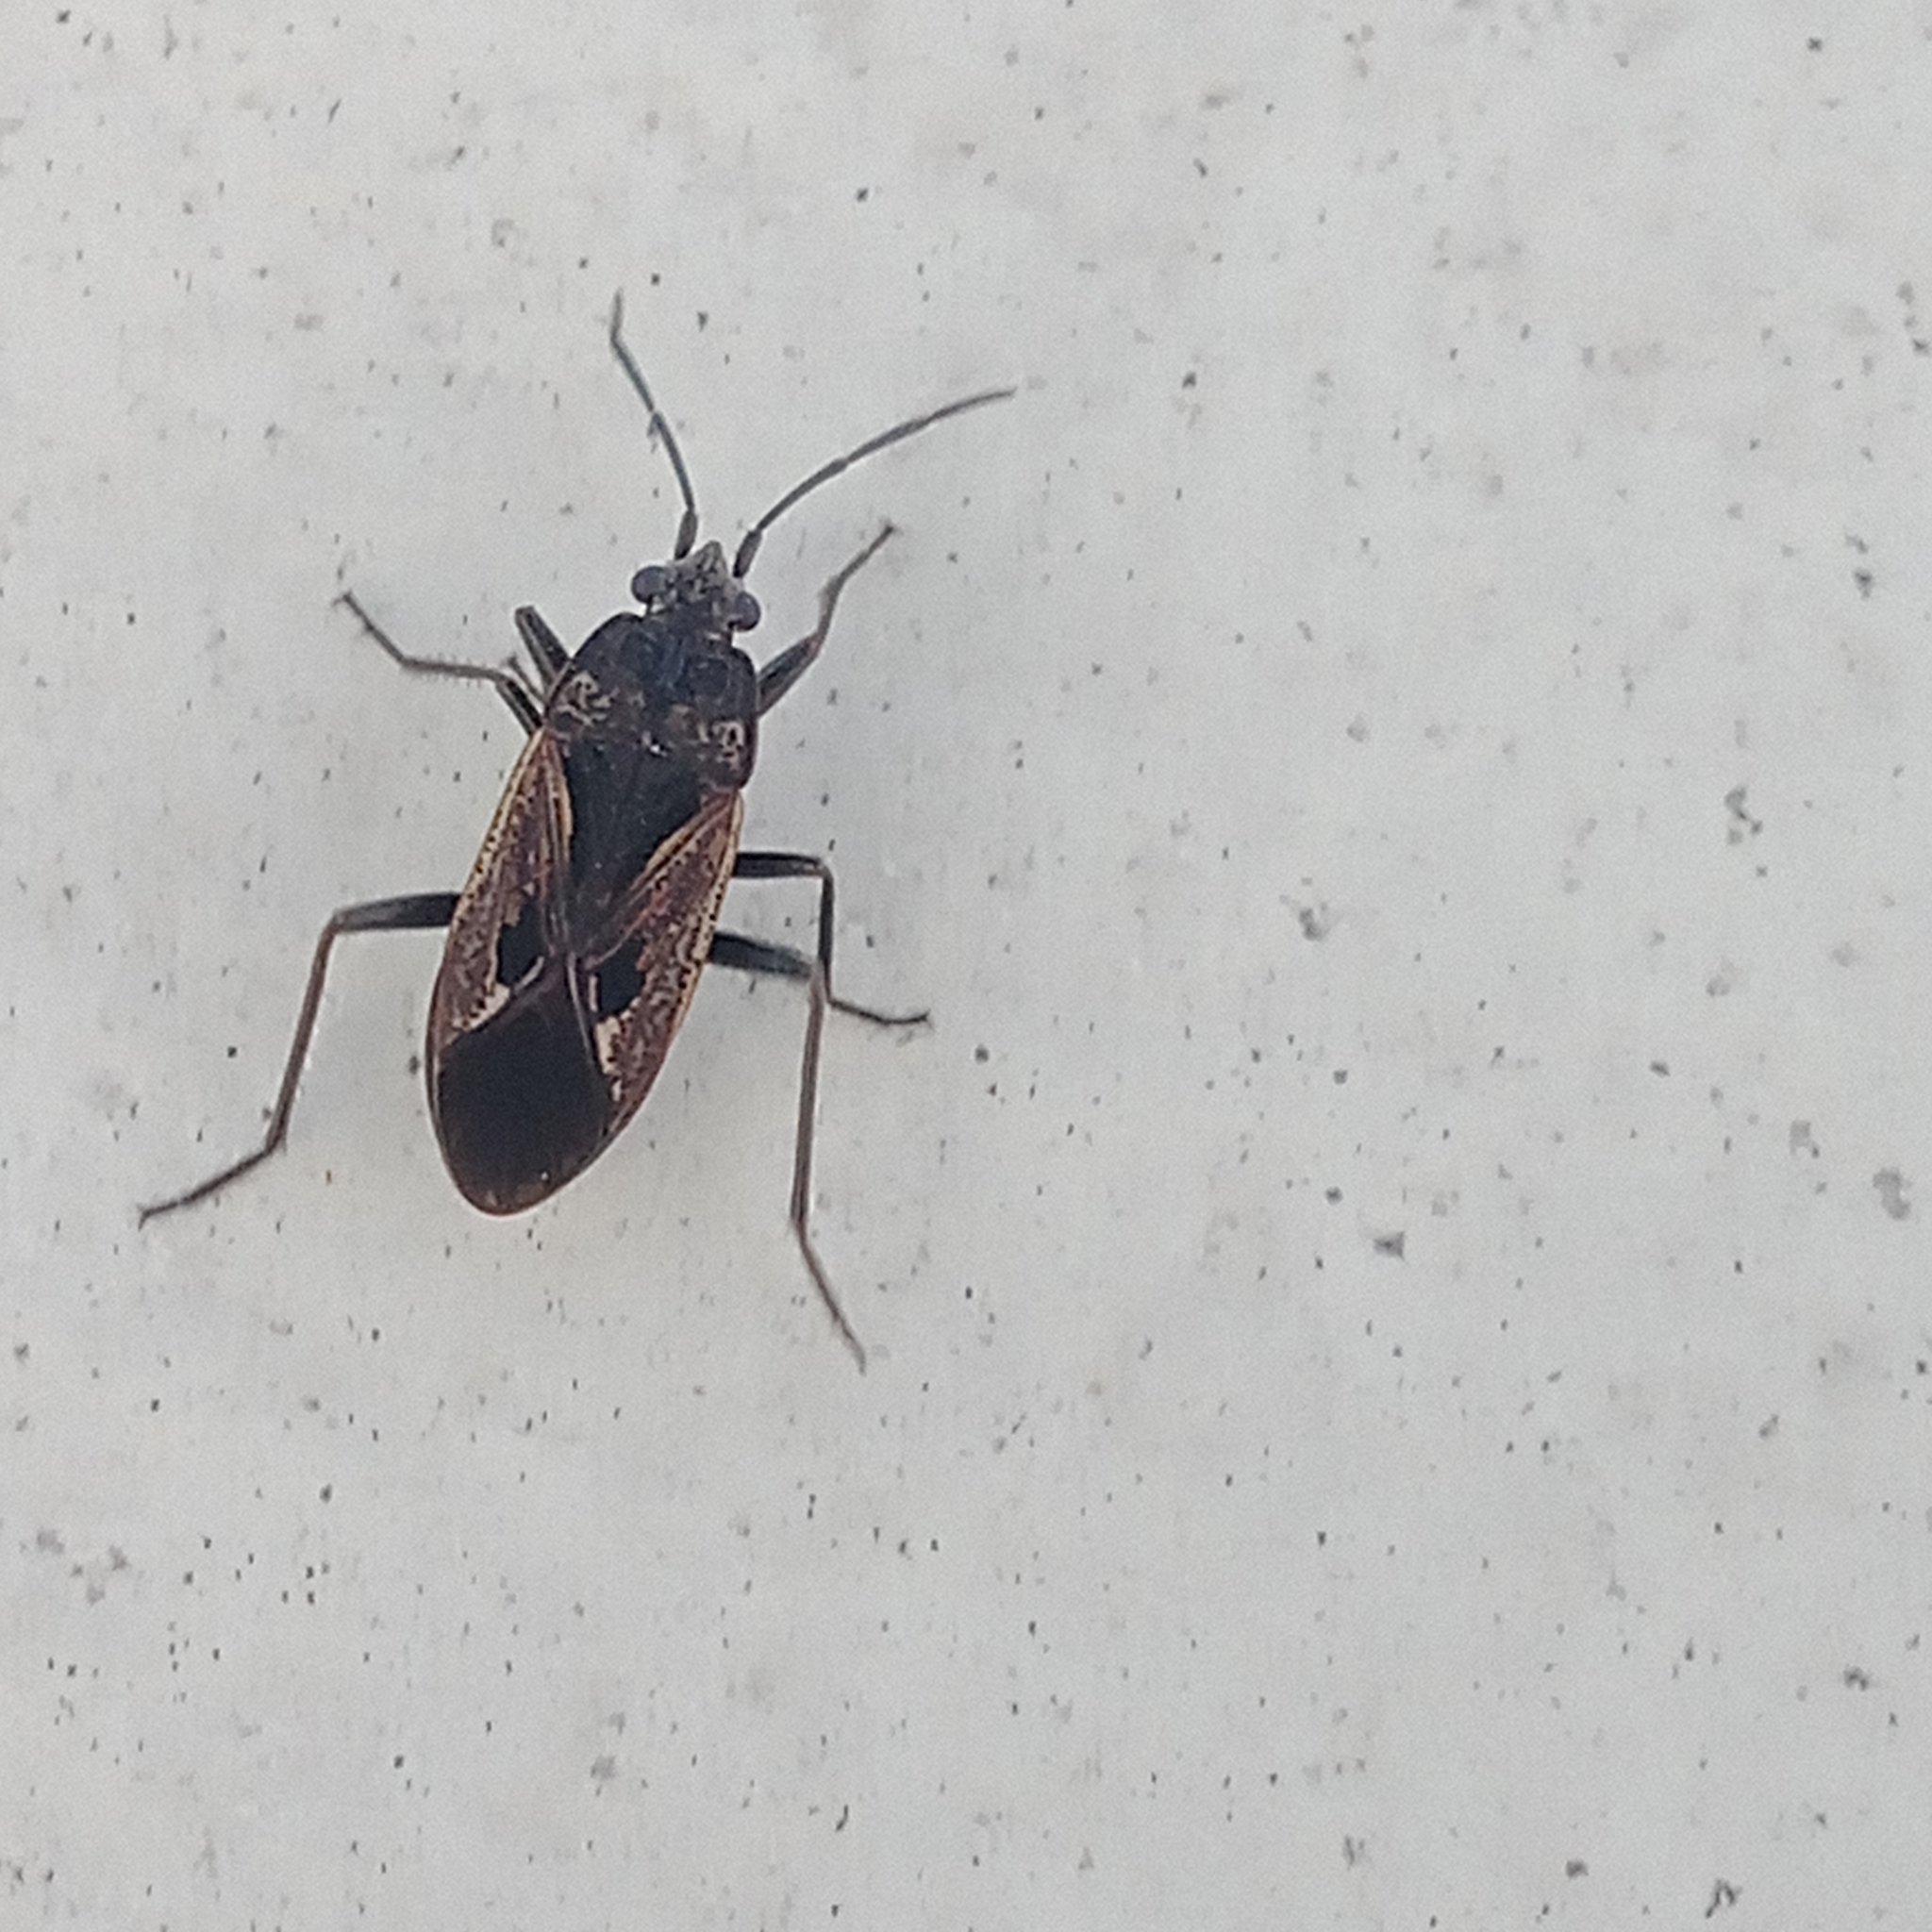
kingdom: Animalia
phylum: Arthropoda
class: Insecta
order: Hemiptera
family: Rhyparochromidae
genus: Rhyparochromus
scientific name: Rhyparochromus pini
